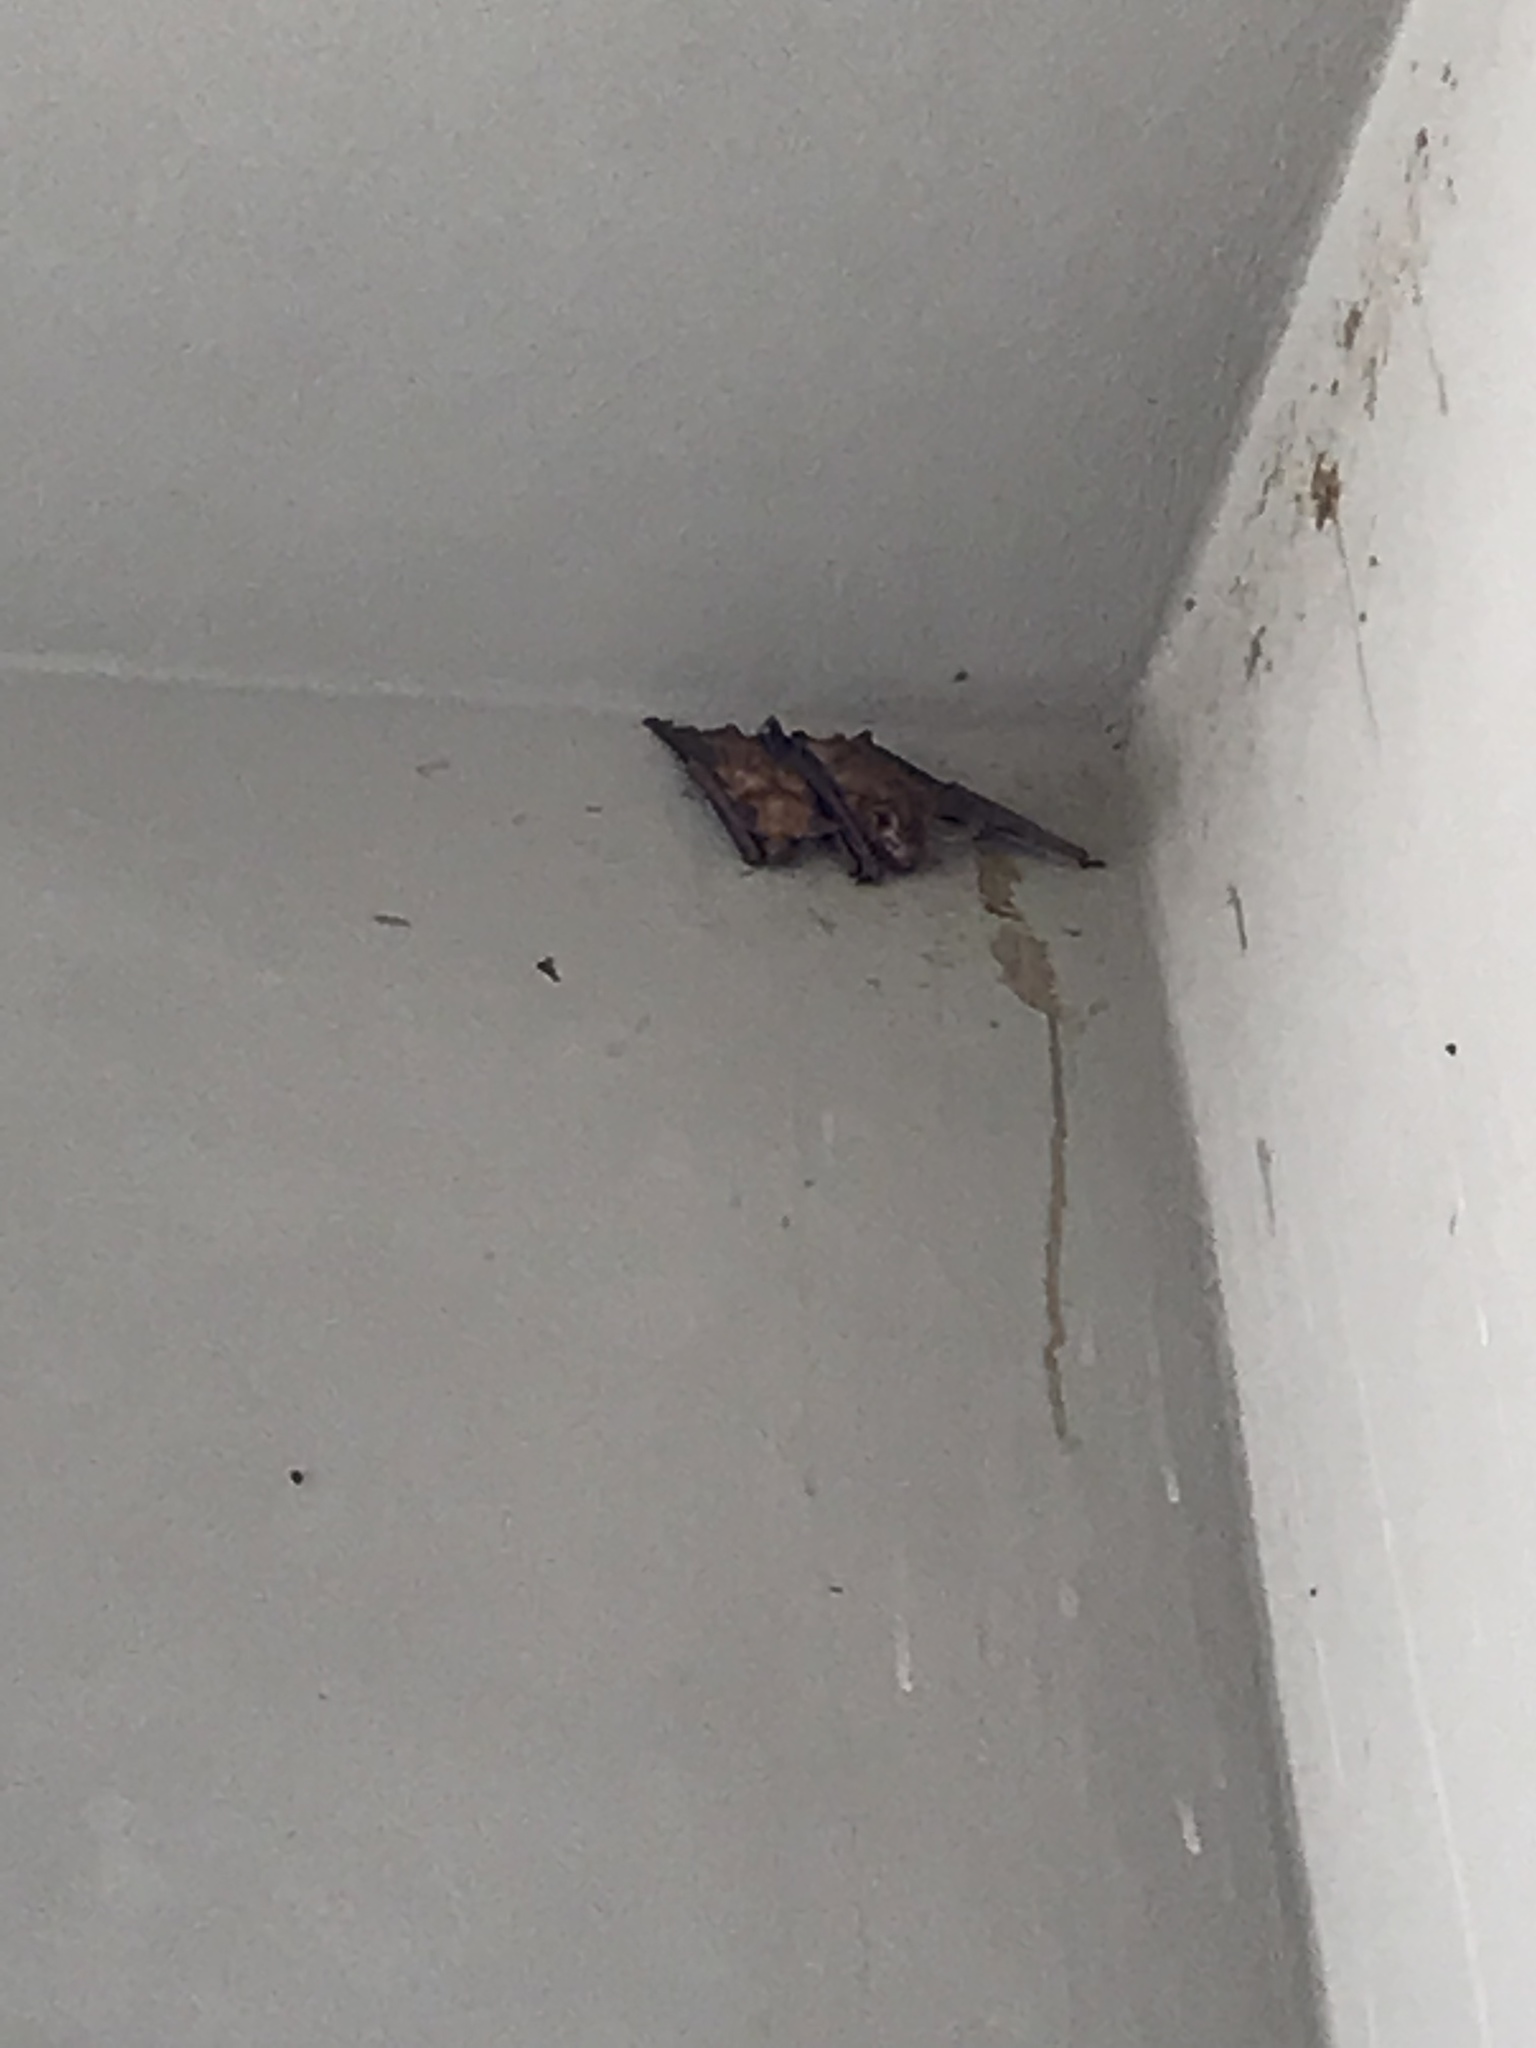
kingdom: Animalia
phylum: Chordata
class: Mammalia
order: Chiroptera
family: Vespertilionidae
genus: Antrozous
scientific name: Antrozous pallidus
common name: Pallid bat
